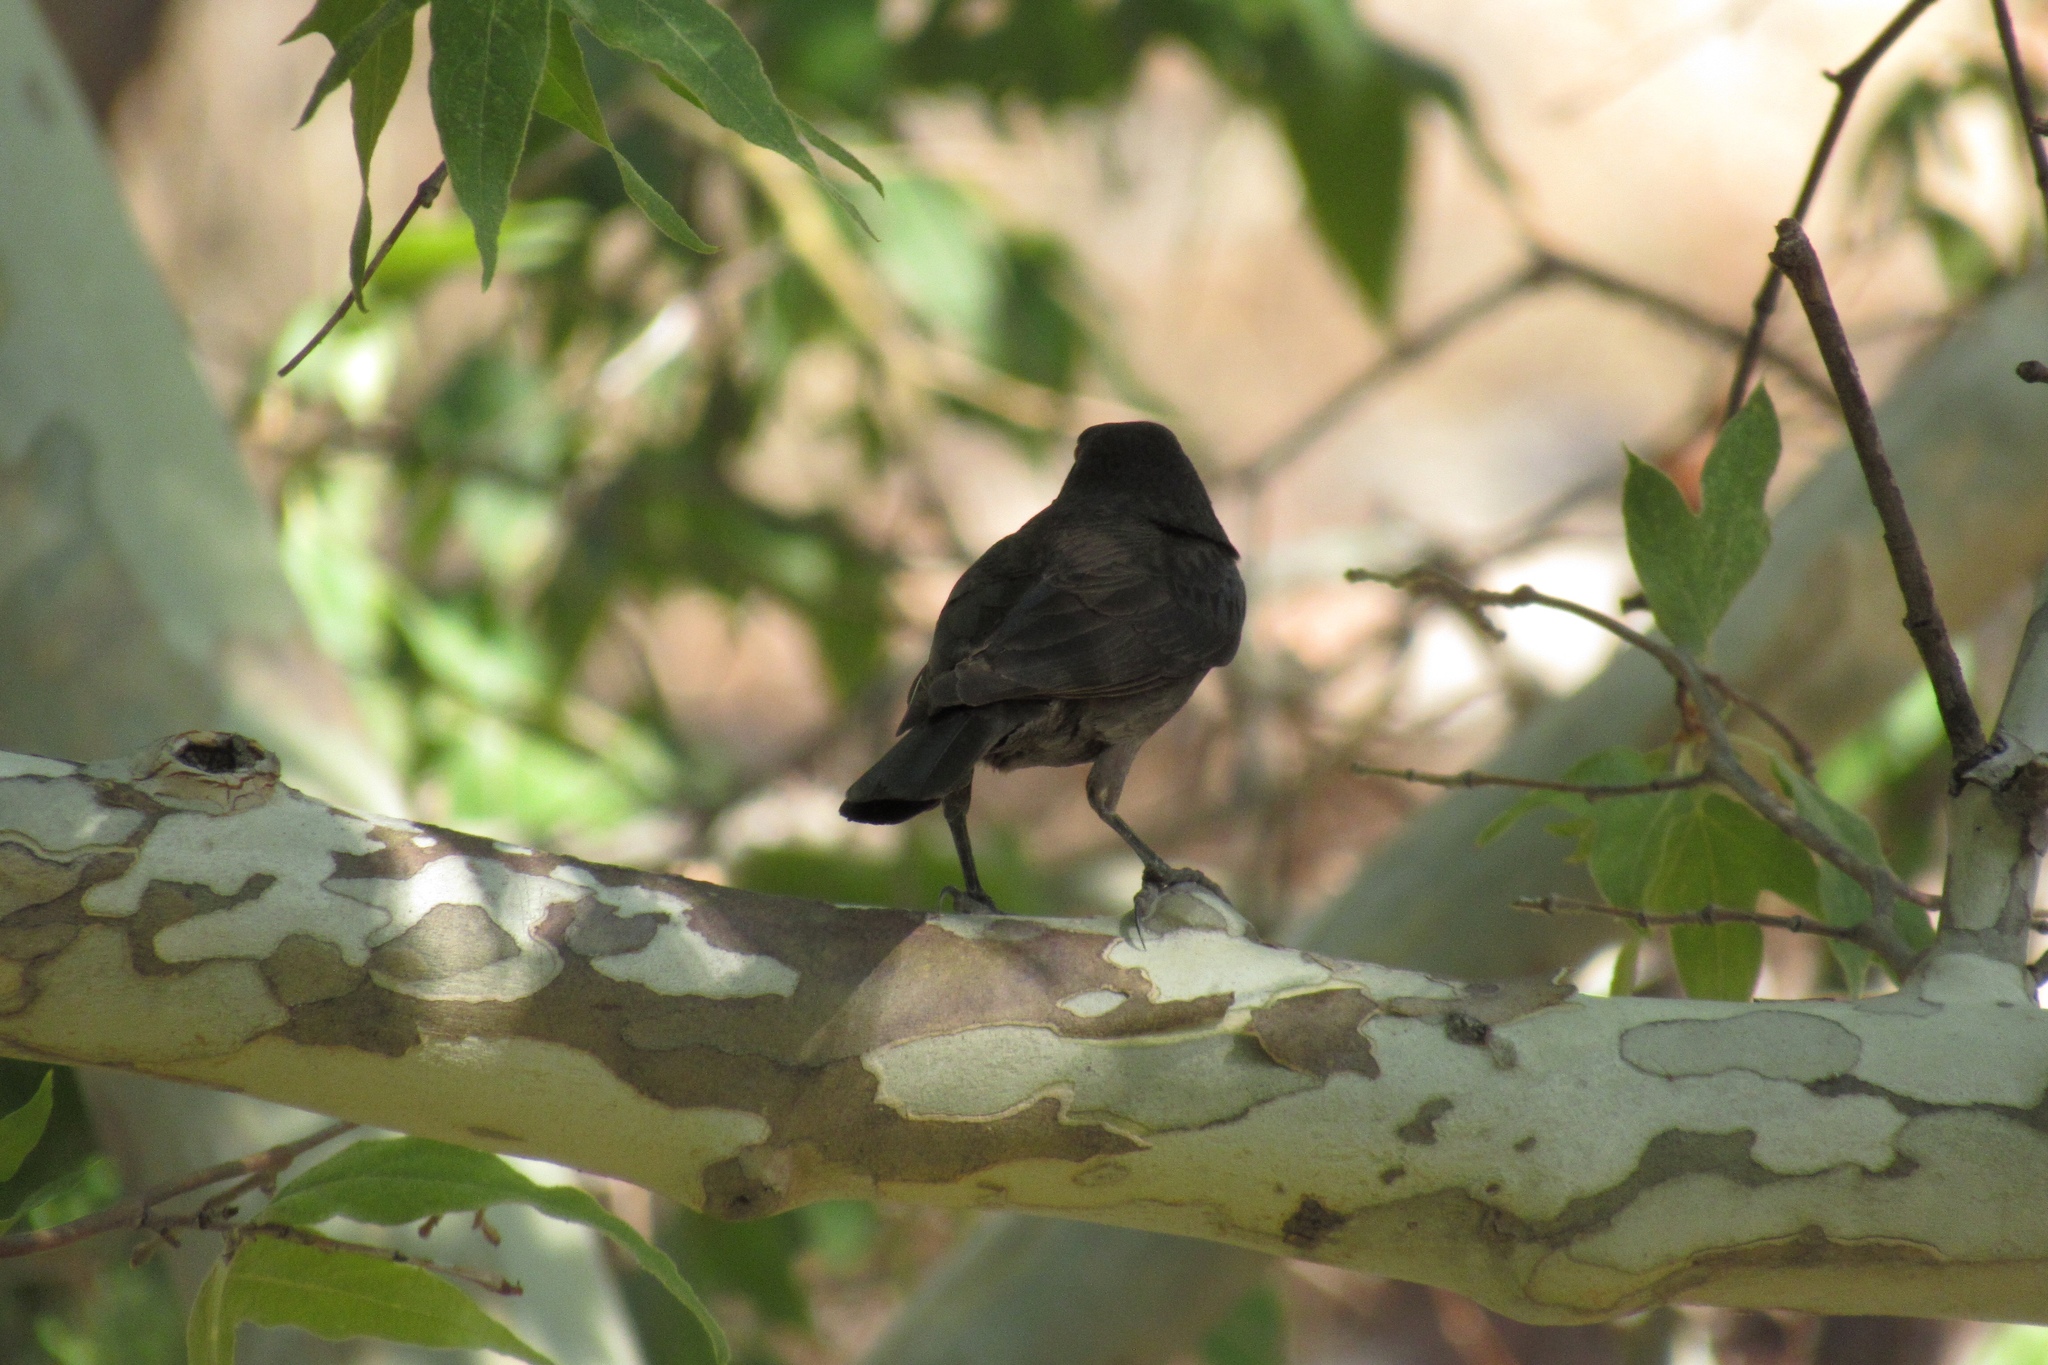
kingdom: Animalia
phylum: Chordata
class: Aves
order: Passeriformes
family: Icteridae
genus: Molothrus
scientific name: Molothrus aeneus
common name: Bronzed cowbird
